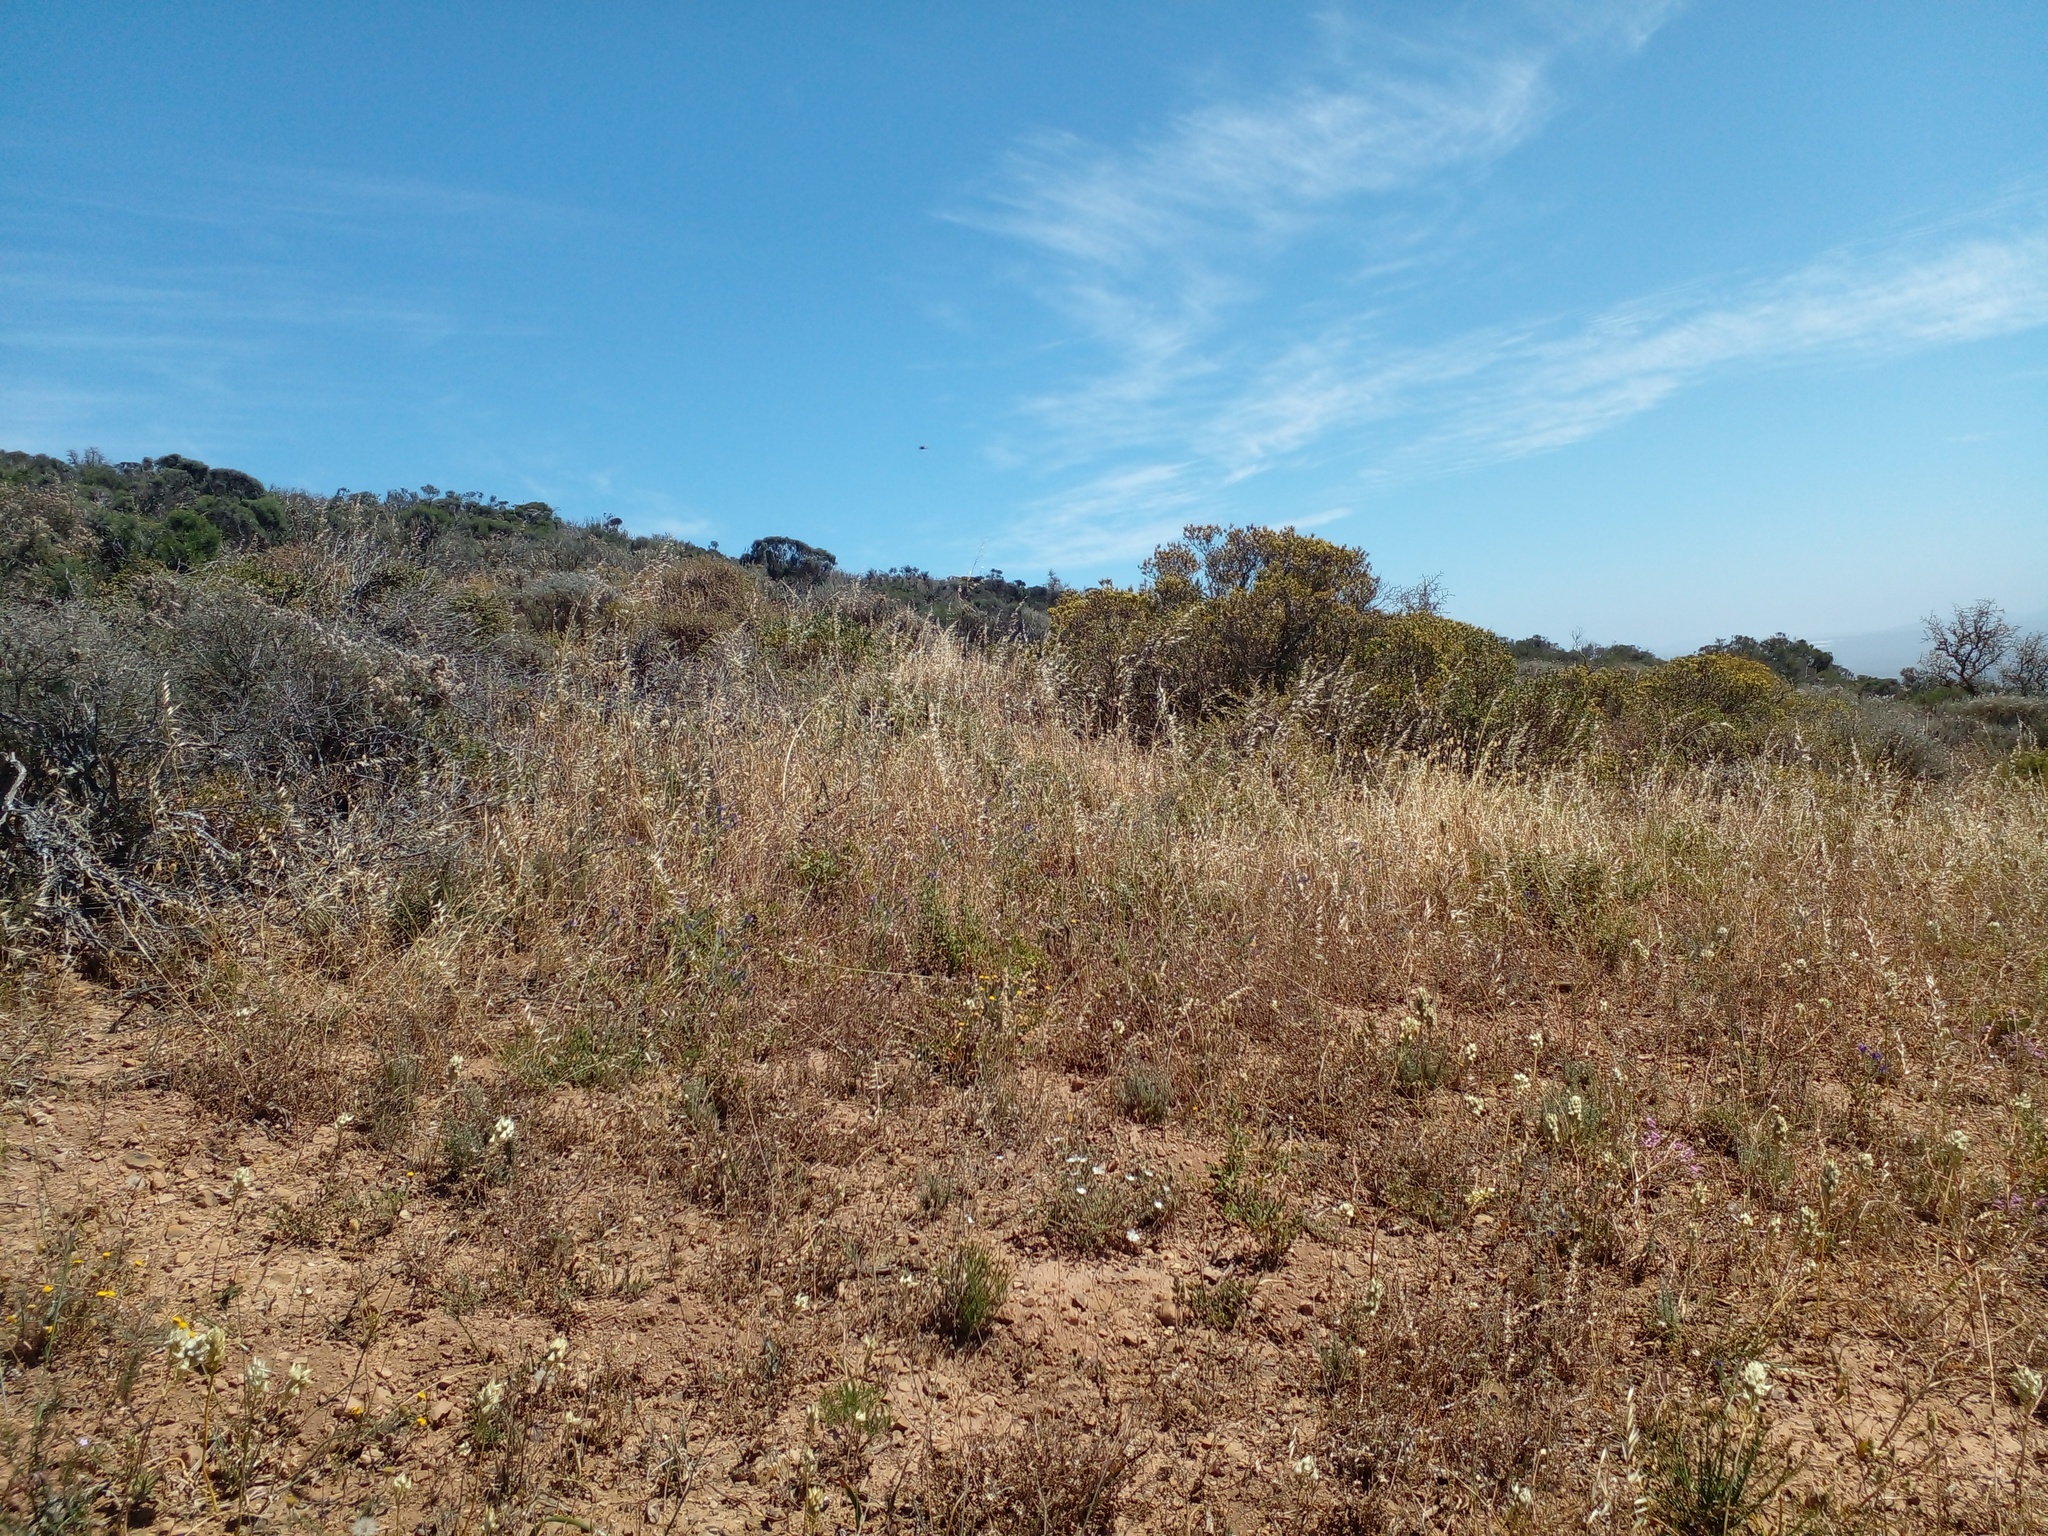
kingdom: Plantae
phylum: Tracheophyta
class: Magnoliopsida
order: Asterales
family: Asteraceae
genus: Pteronia
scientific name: Pteronia divaricata
